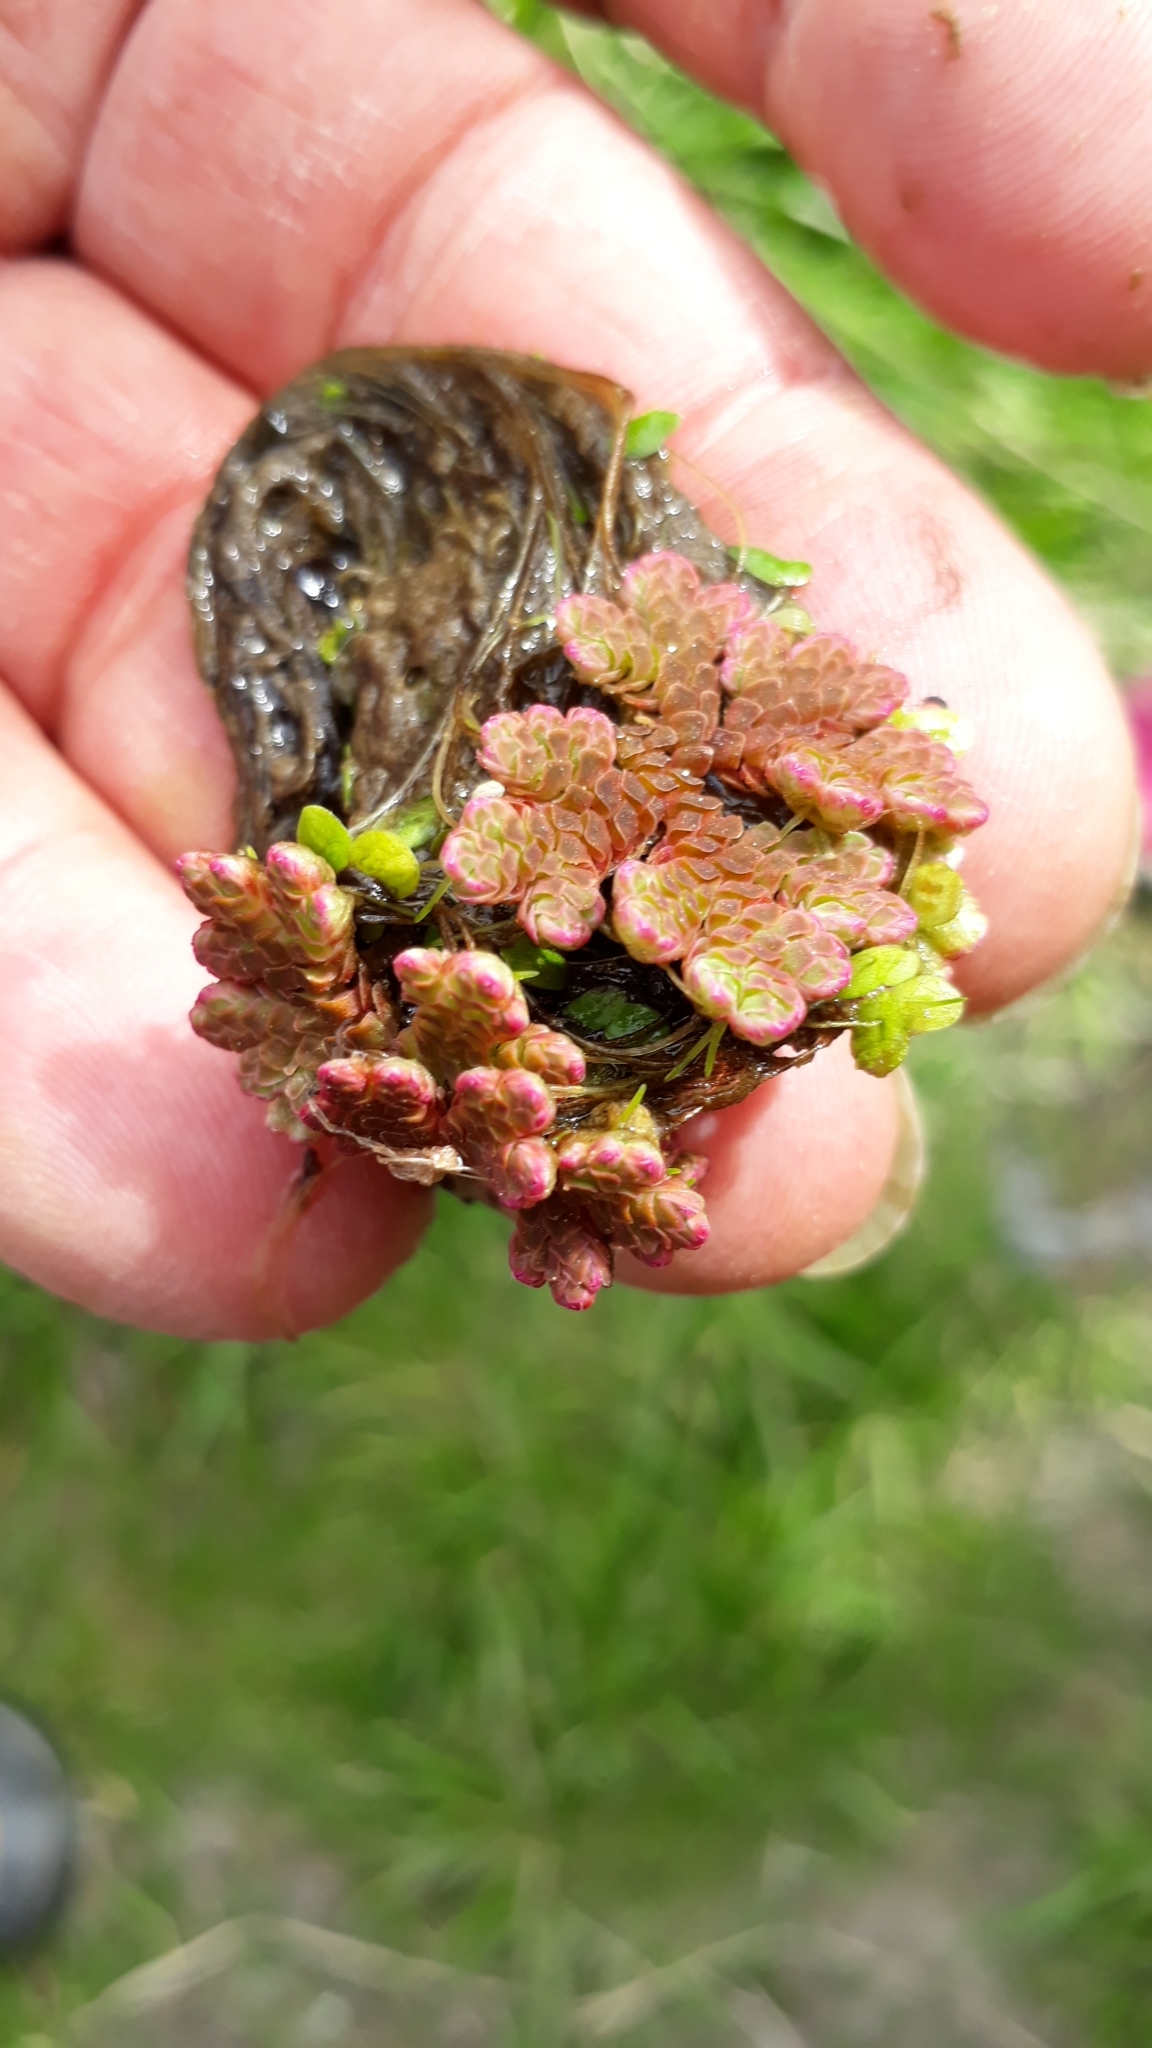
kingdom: Plantae
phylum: Tracheophyta
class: Polypodiopsida
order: Salviniales
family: Salviniaceae
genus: Azolla
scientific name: Azolla rubra
